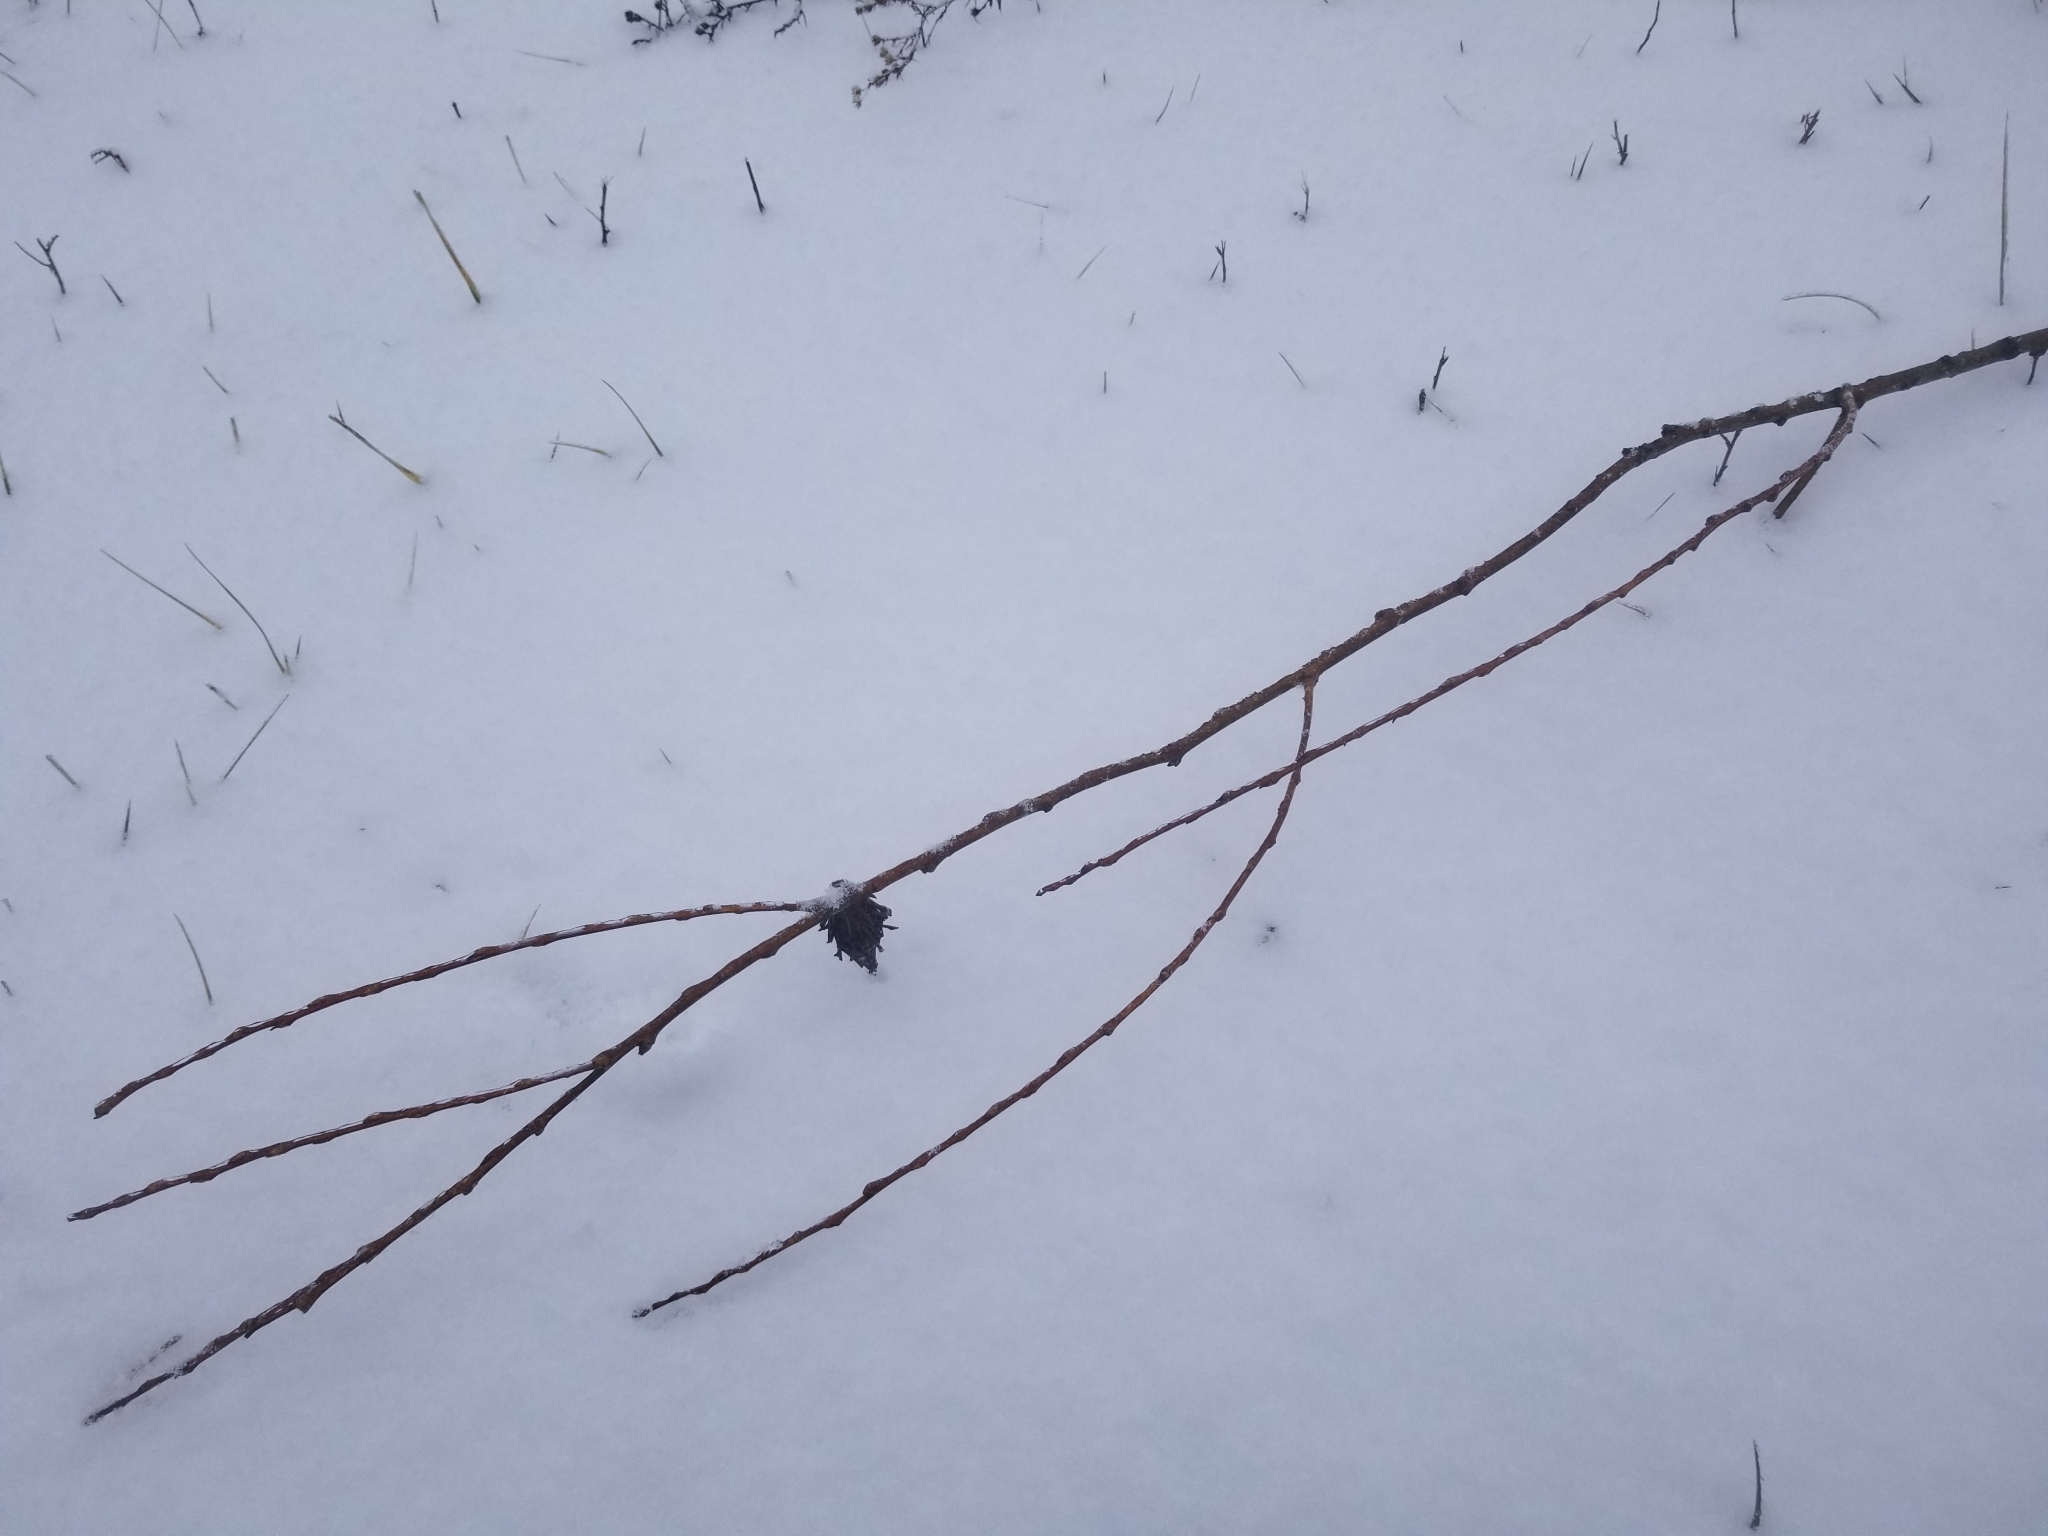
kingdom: Animalia
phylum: Arthropoda
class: Insecta
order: Lepidoptera
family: Psychidae
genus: Thyridopteryx
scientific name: Thyridopteryx ephemeraeformis
